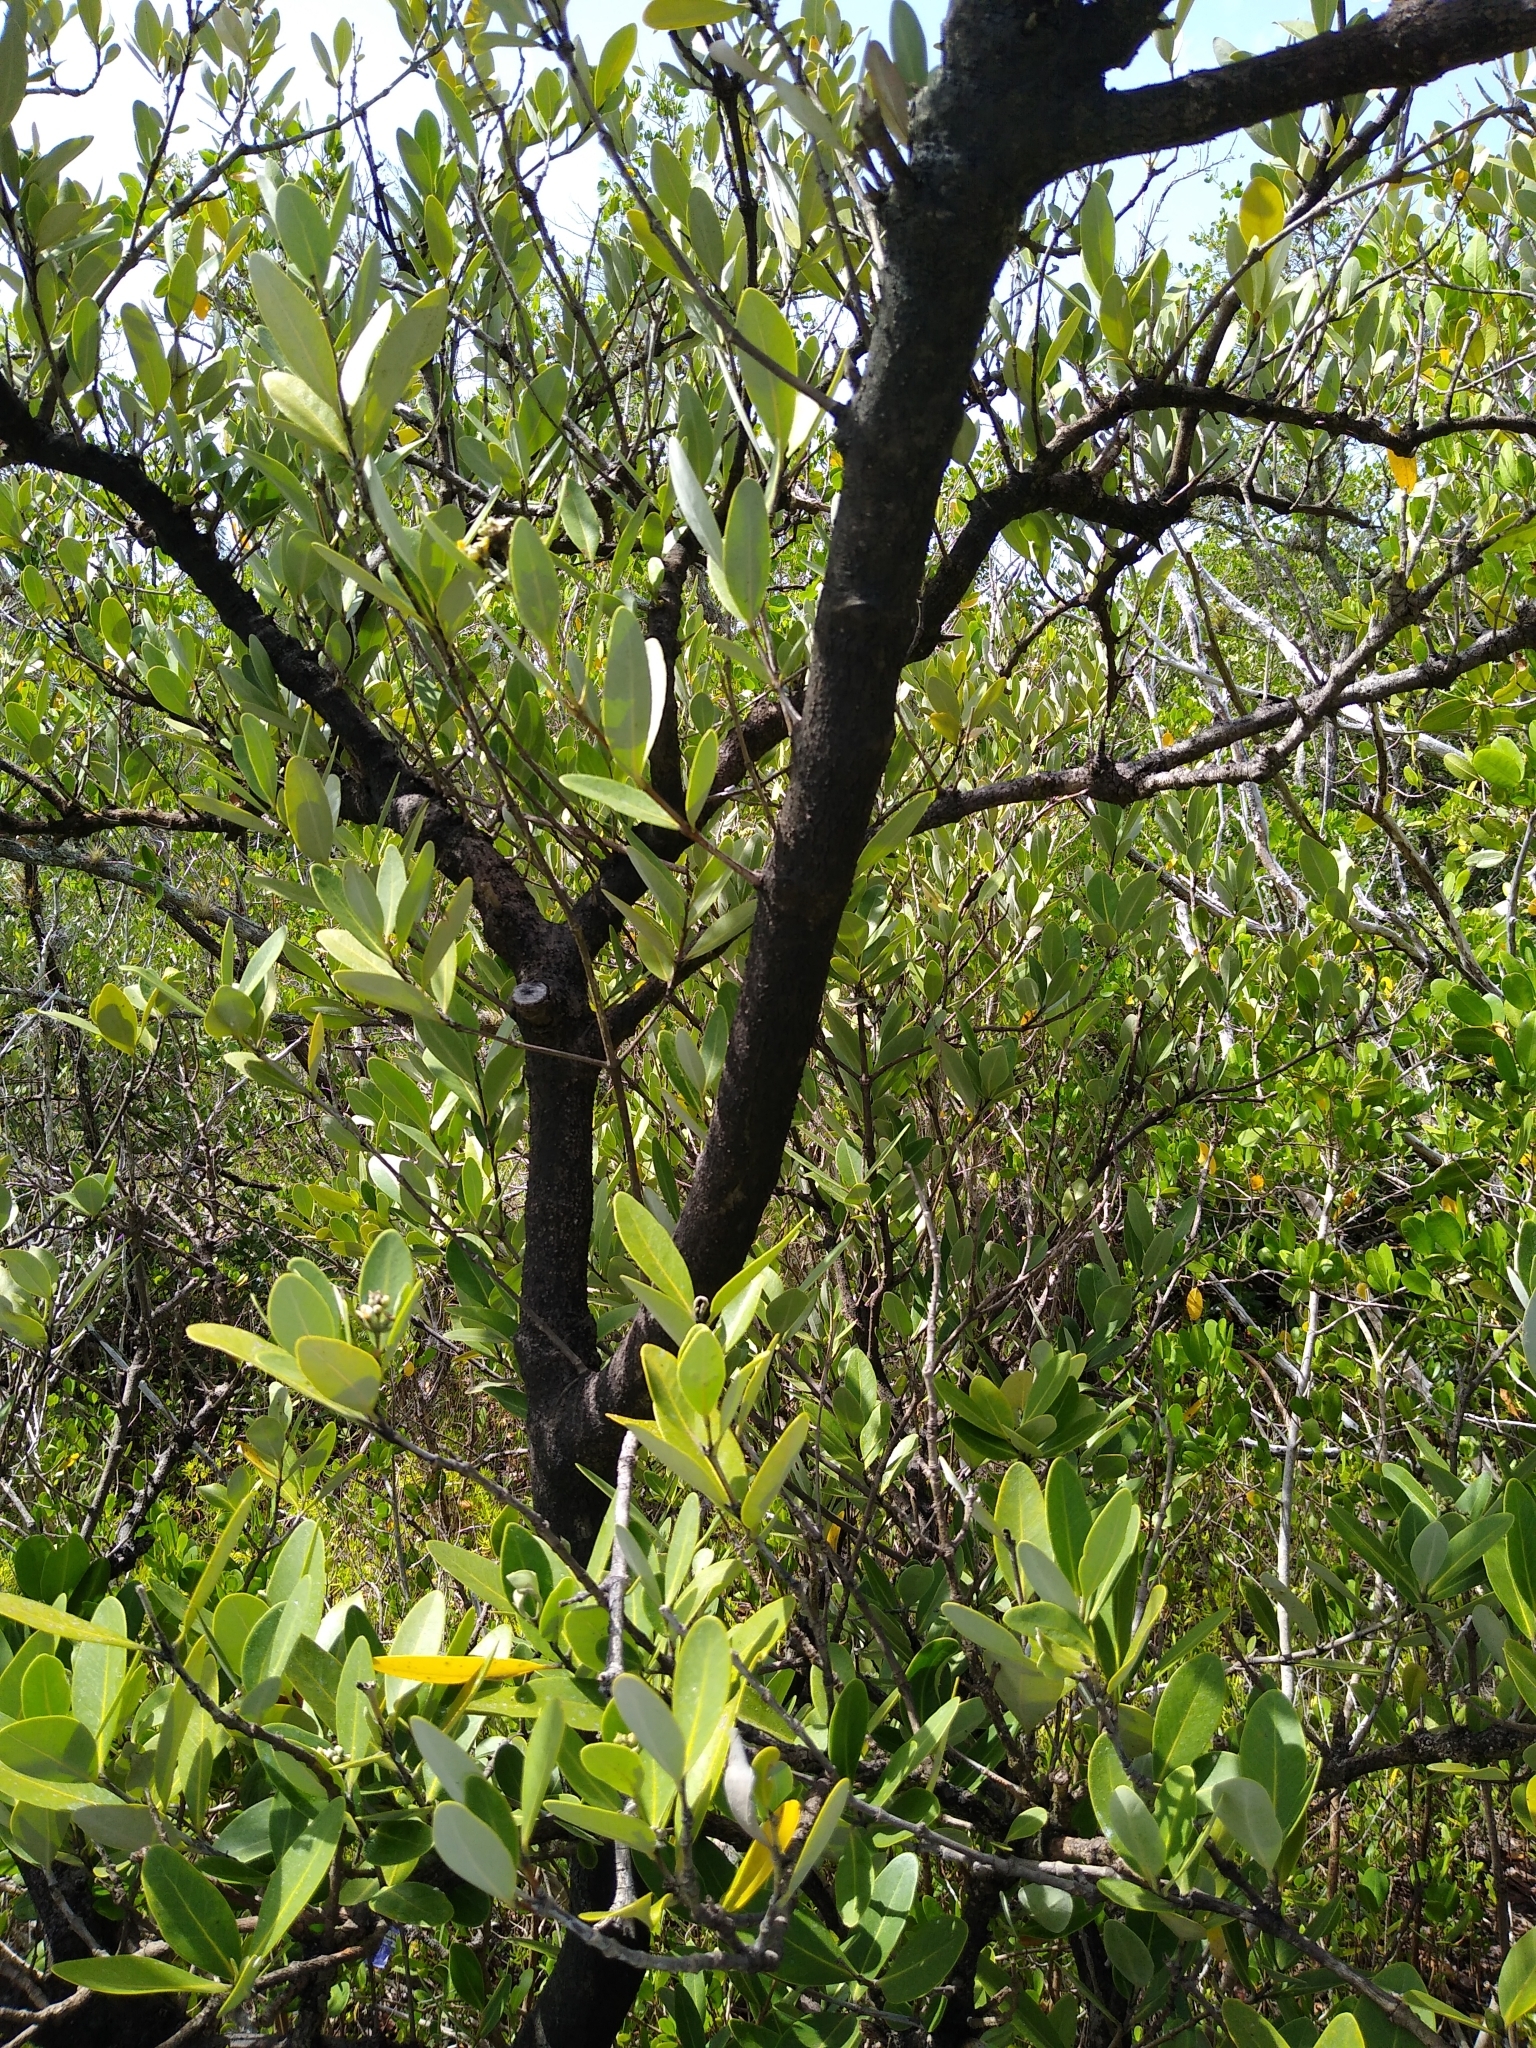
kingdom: Plantae
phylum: Tracheophyta
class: Magnoliopsida
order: Lamiales
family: Acanthaceae
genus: Avicennia
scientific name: Avicennia germinans
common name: Black mangrove
